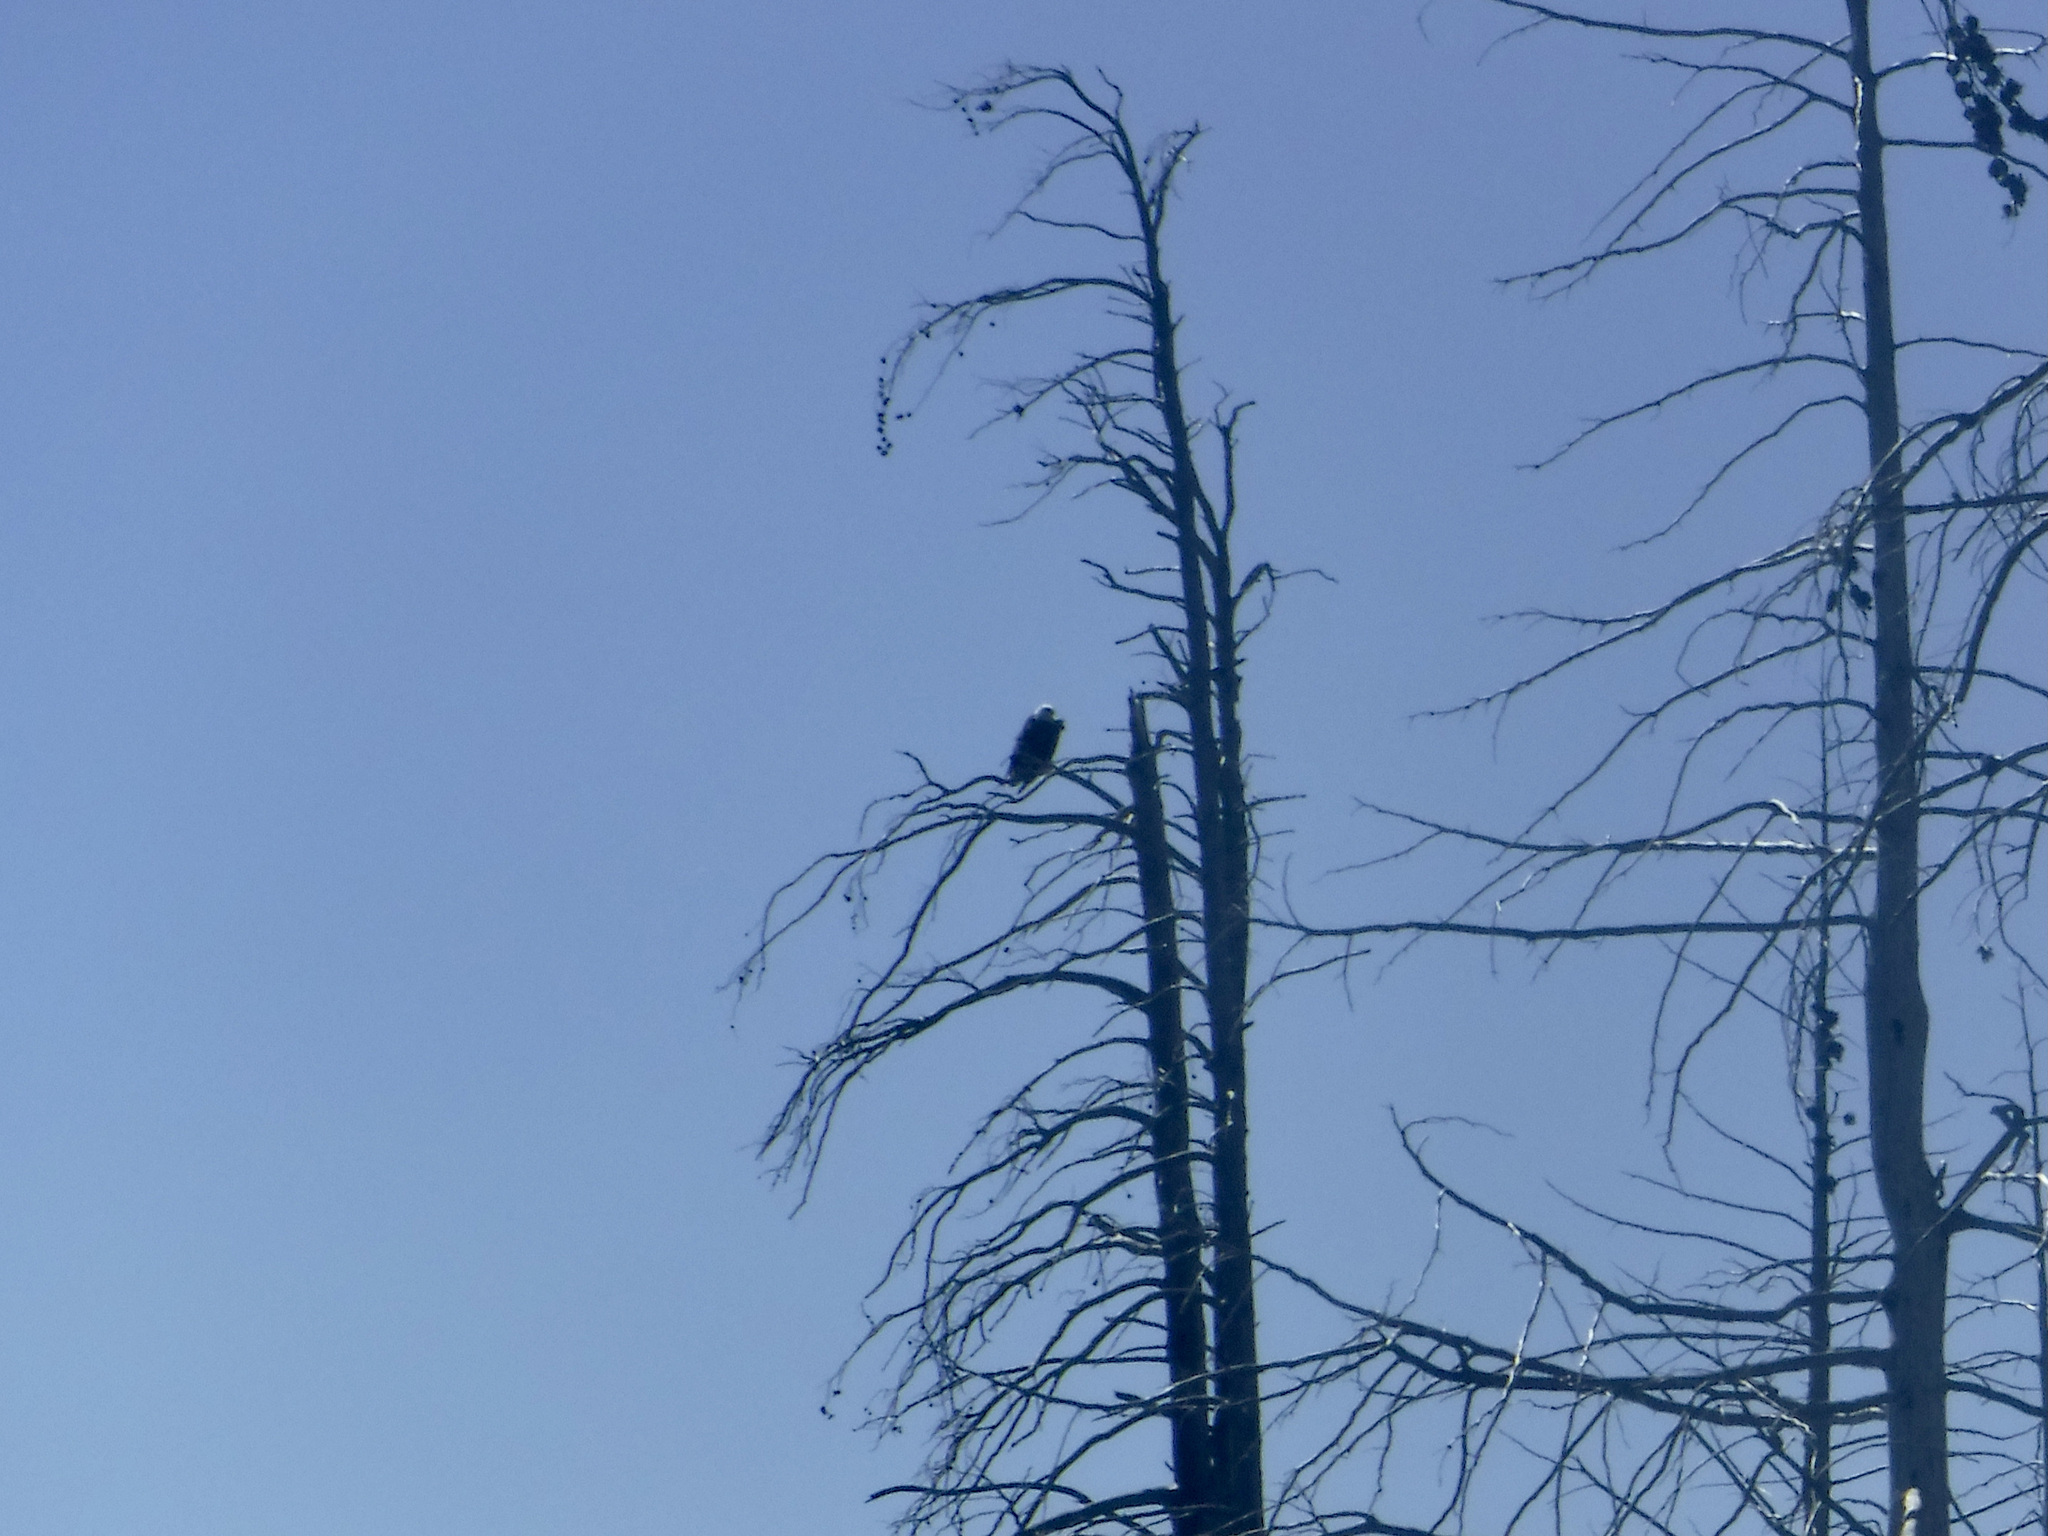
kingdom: Animalia
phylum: Chordata
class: Aves
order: Accipitriformes
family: Accipitridae
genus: Haliaeetus
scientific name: Haliaeetus leucocephalus
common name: Bald eagle
